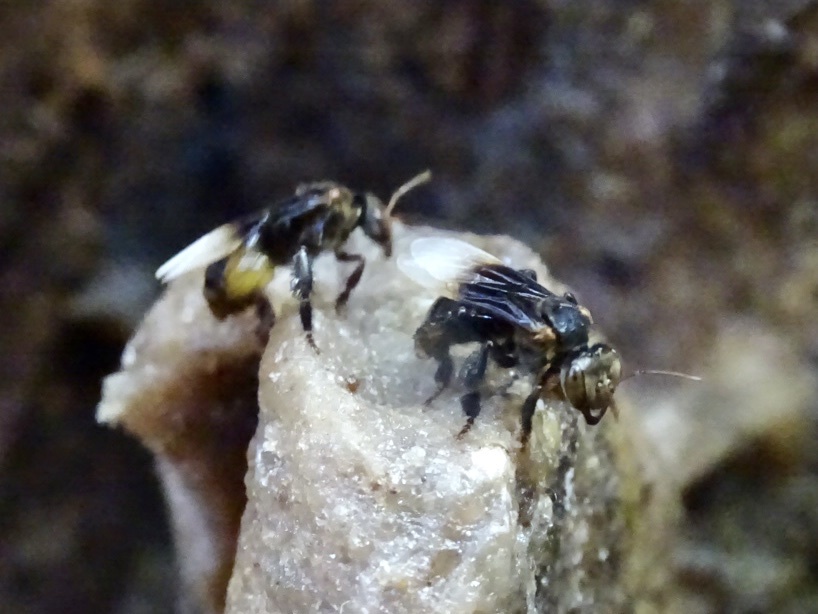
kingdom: Animalia
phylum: Arthropoda
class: Insecta
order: Hymenoptera
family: Apidae
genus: Homotrigona
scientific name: Homotrigona apicalis
